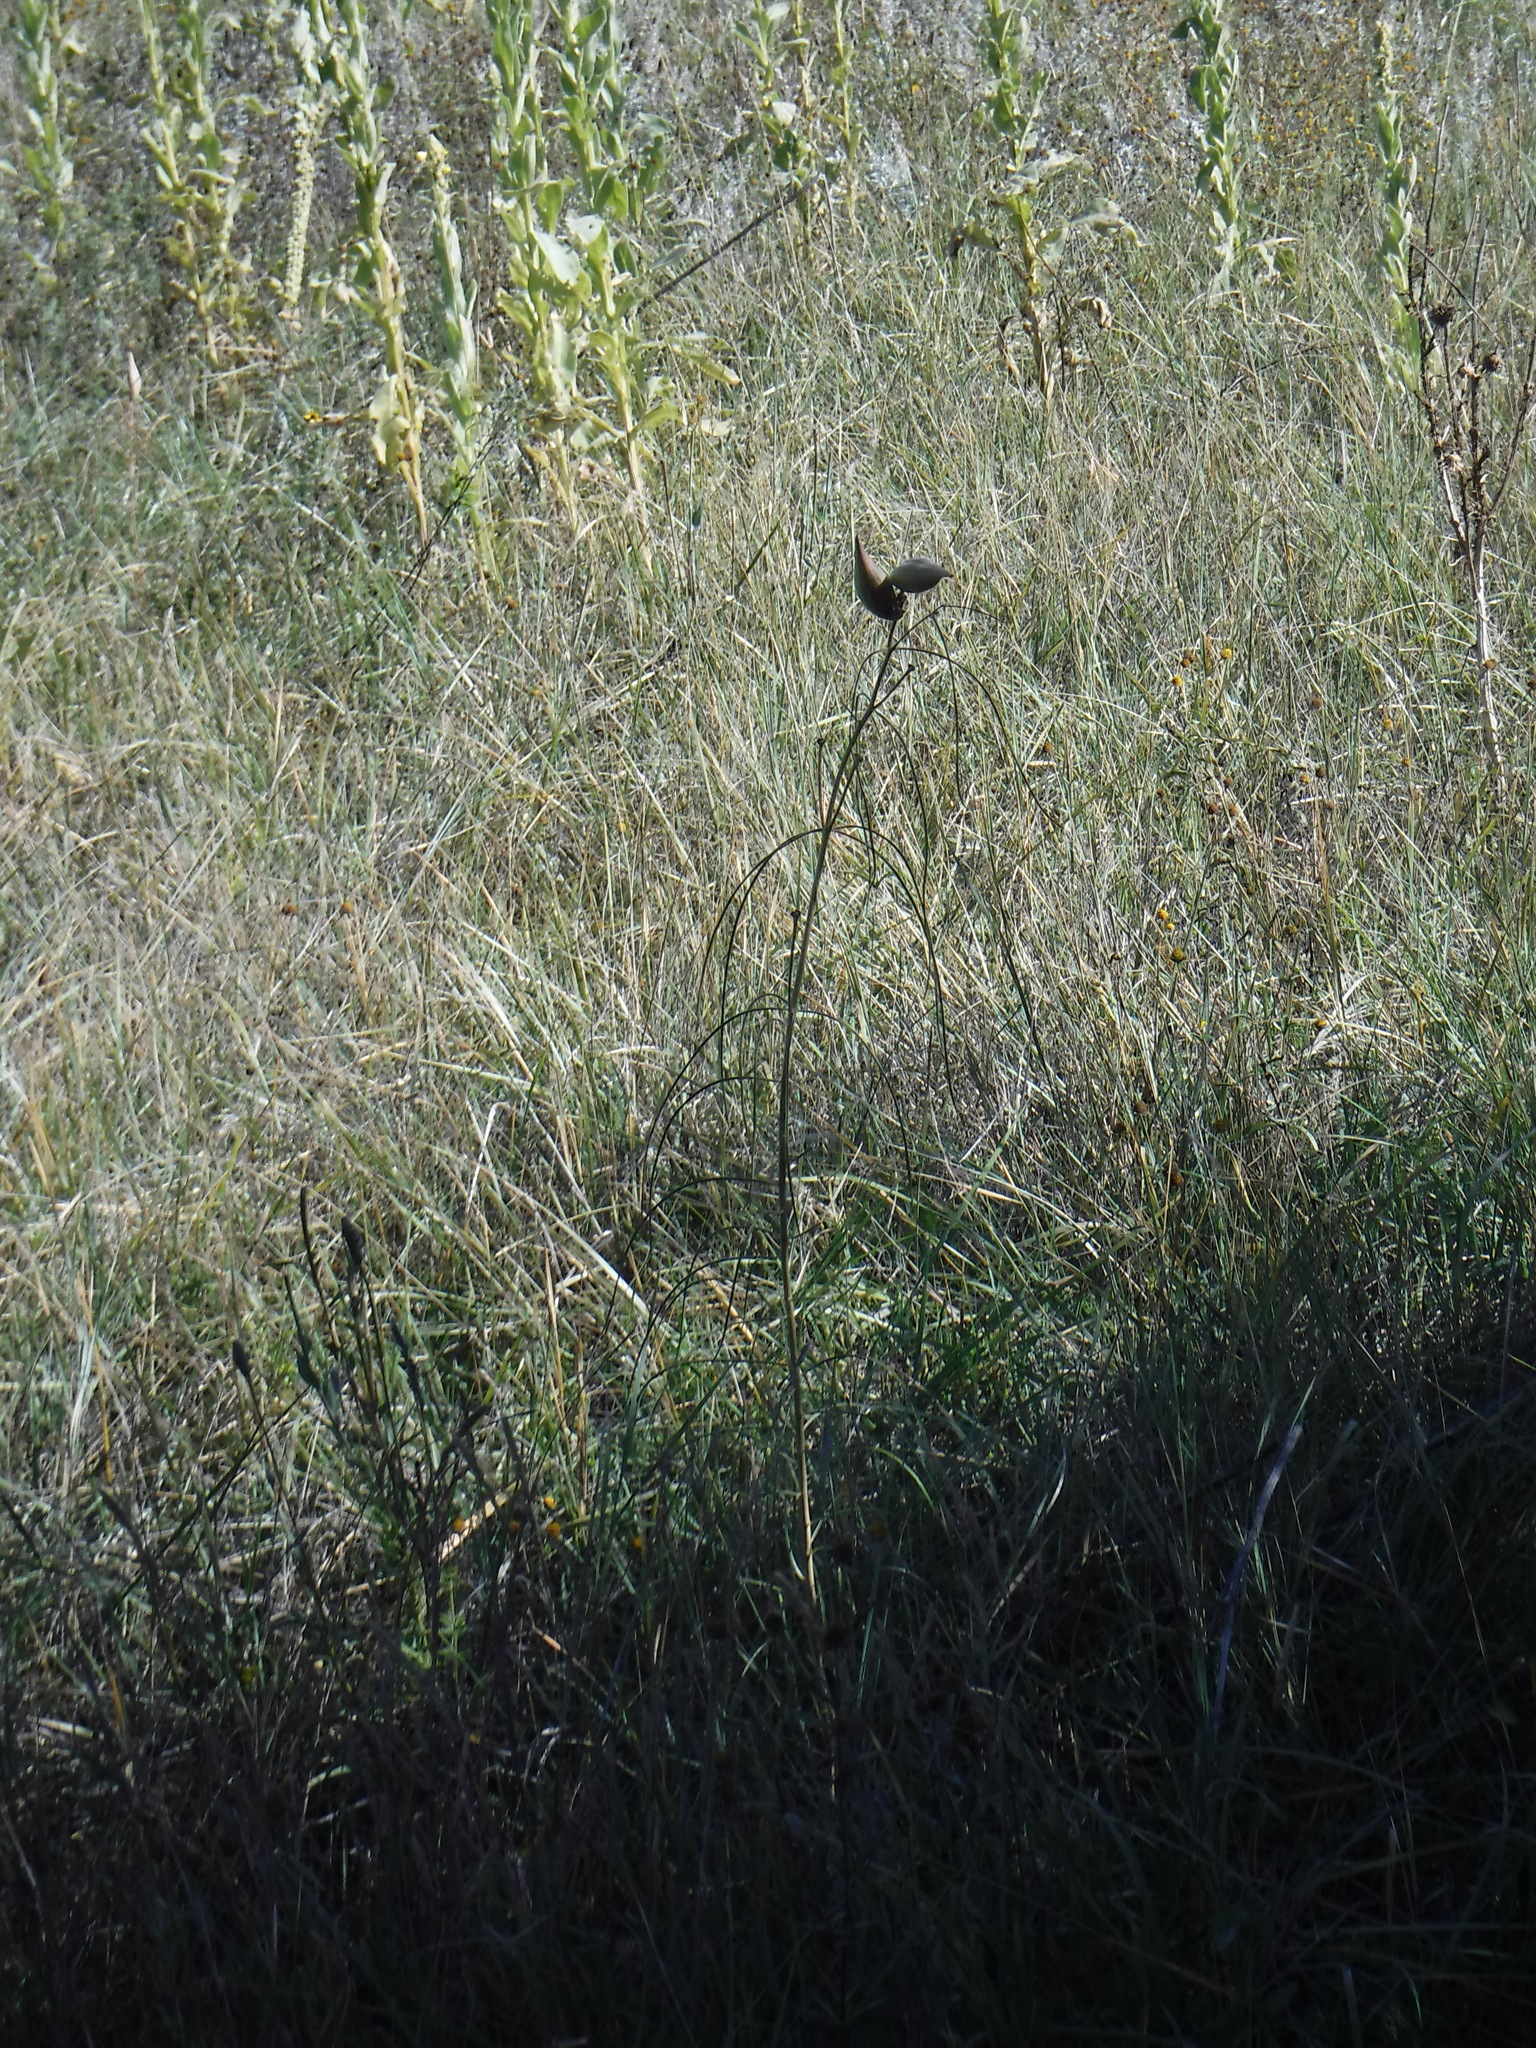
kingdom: Plantae
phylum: Tracheophyta
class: Magnoliopsida
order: Gentianales
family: Apocynaceae
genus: Asclepias
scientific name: Asclepias engelmanniana
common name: Engelmann's milkweed
